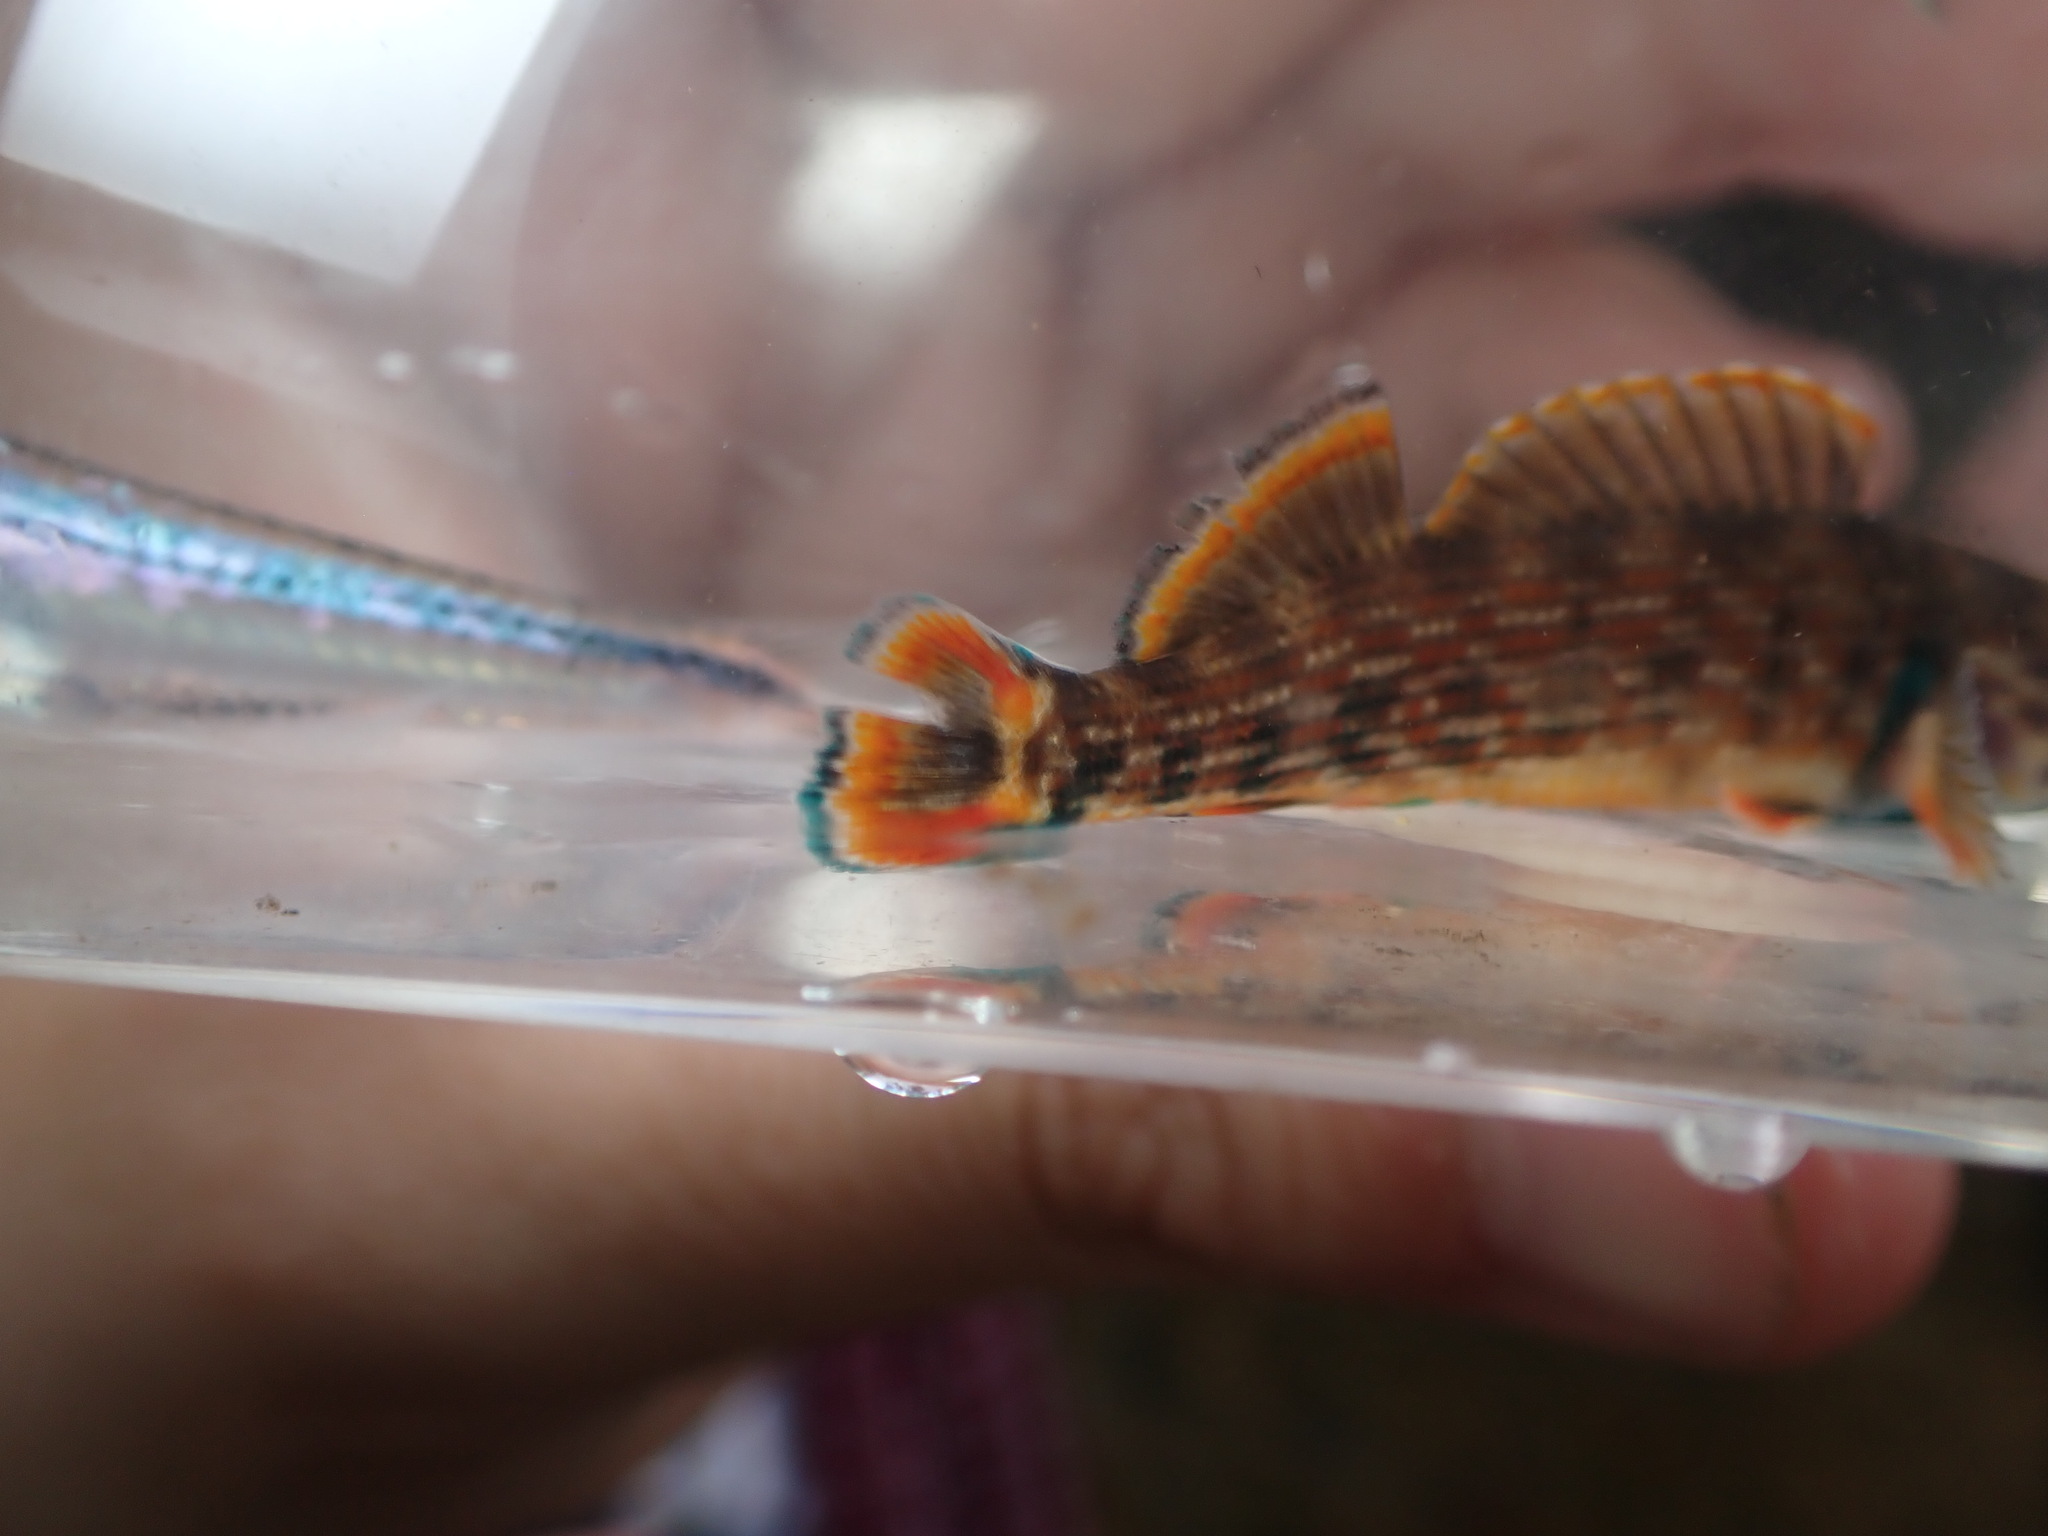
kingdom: Animalia
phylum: Chordata
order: Perciformes
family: Percidae
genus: Etheostoma
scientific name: Etheostoma rufilineatum
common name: Redline darter
